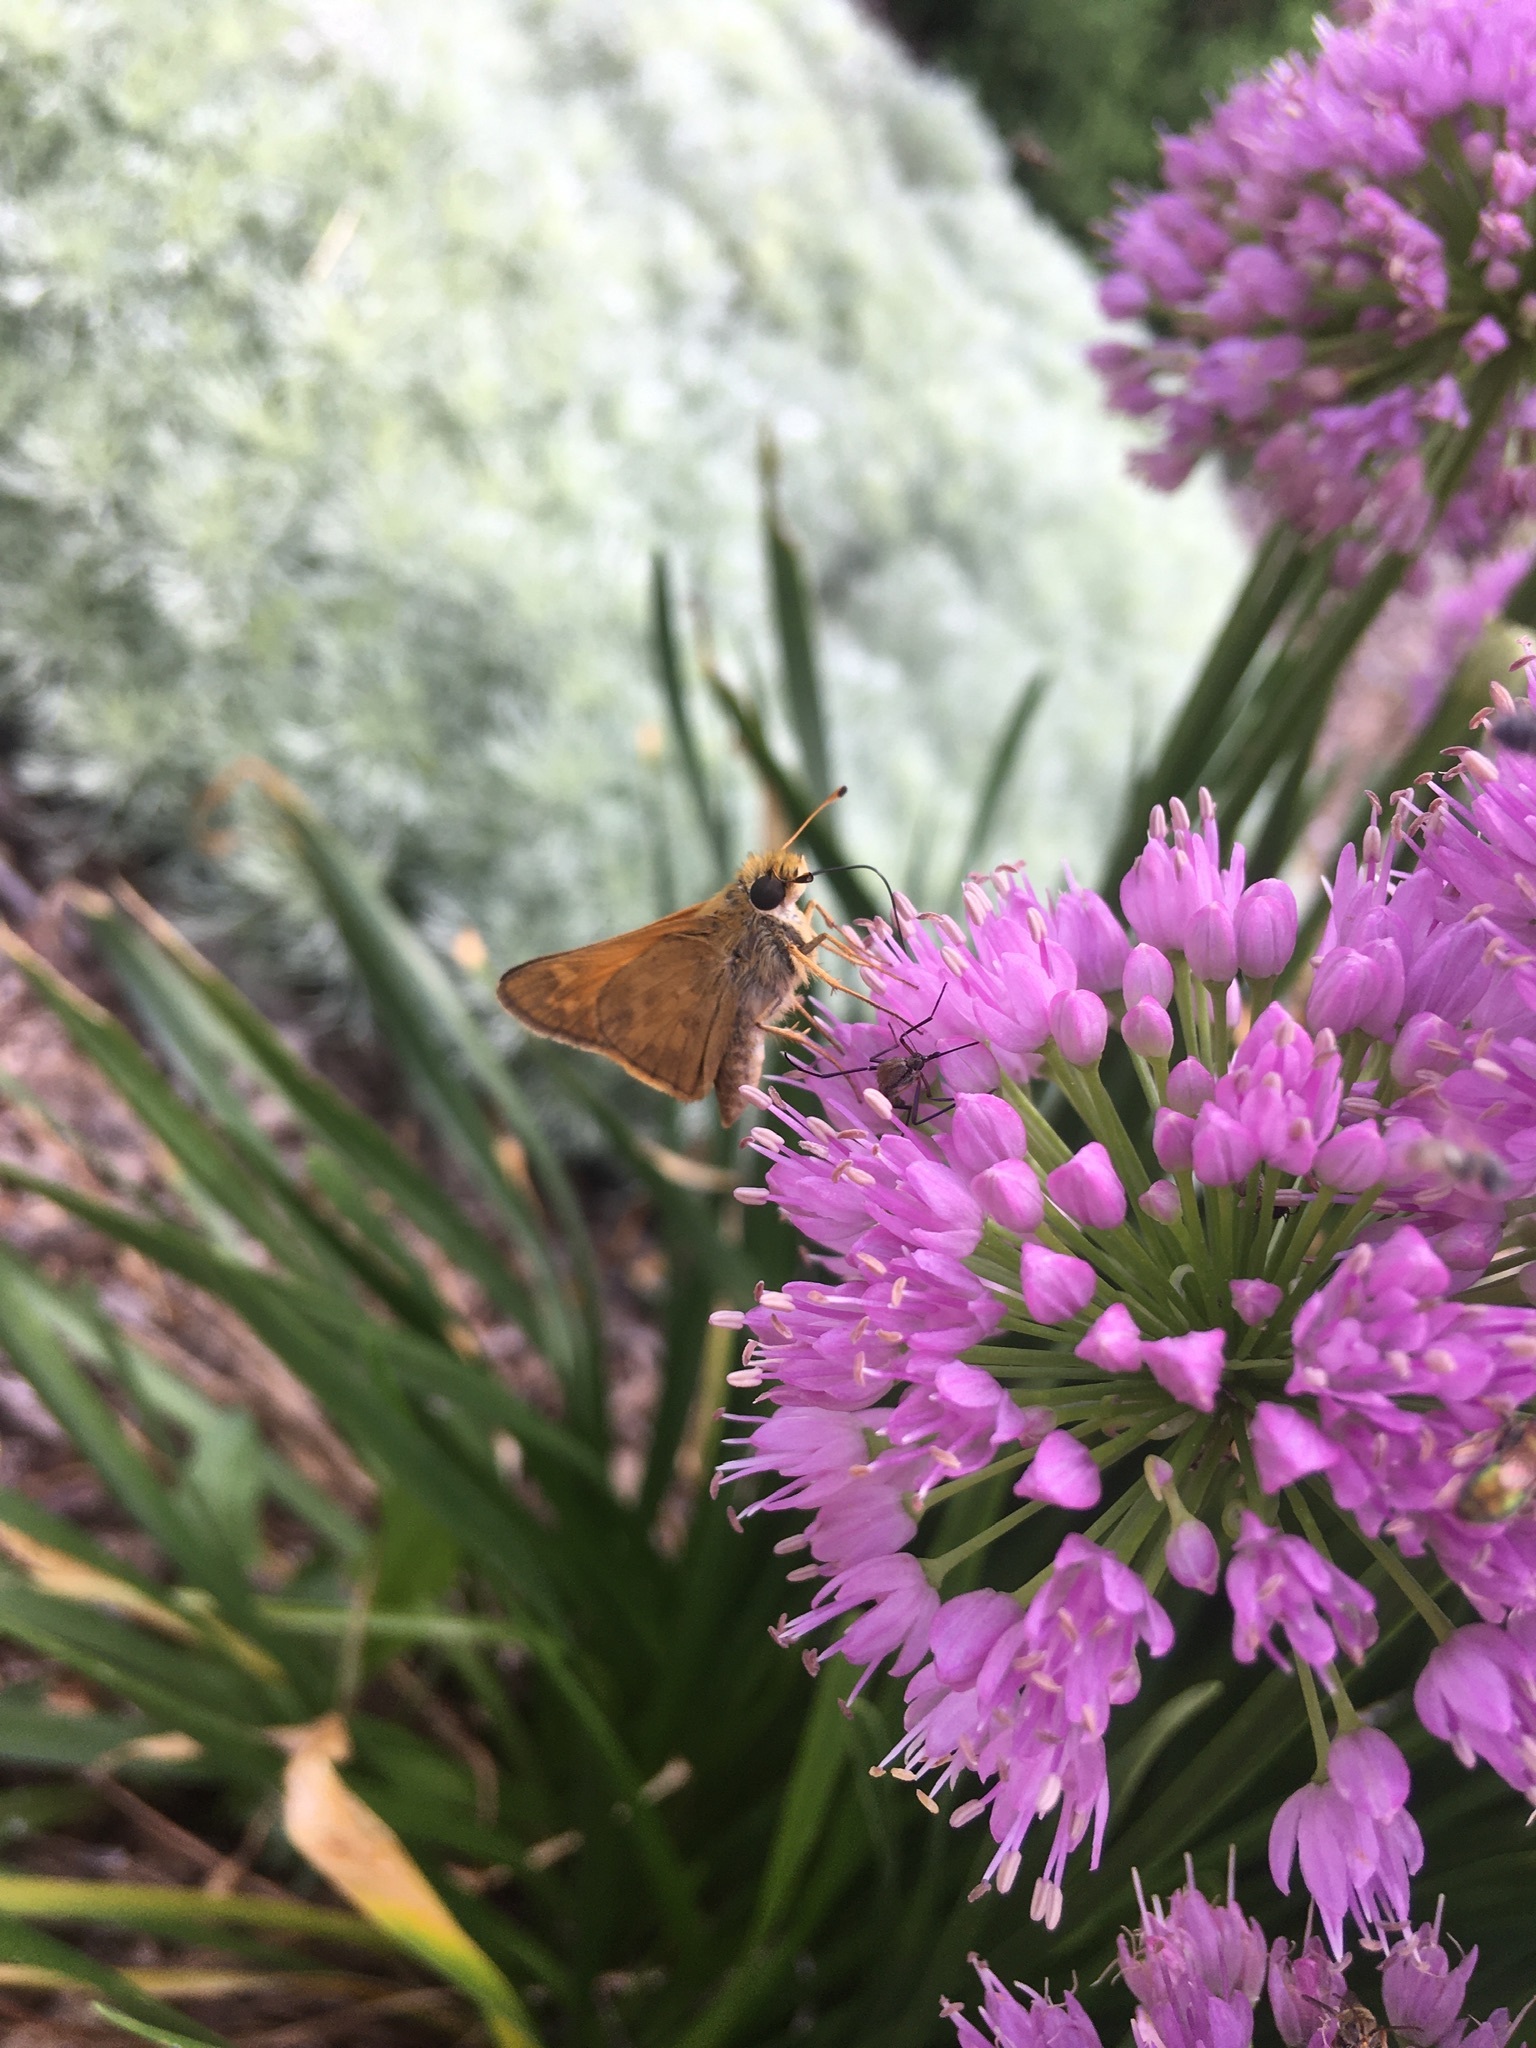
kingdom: Animalia
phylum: Arthropoda
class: Insecta
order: Lepidoptera
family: Hesperiidae
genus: Atalopedes
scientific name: Atalopedes
